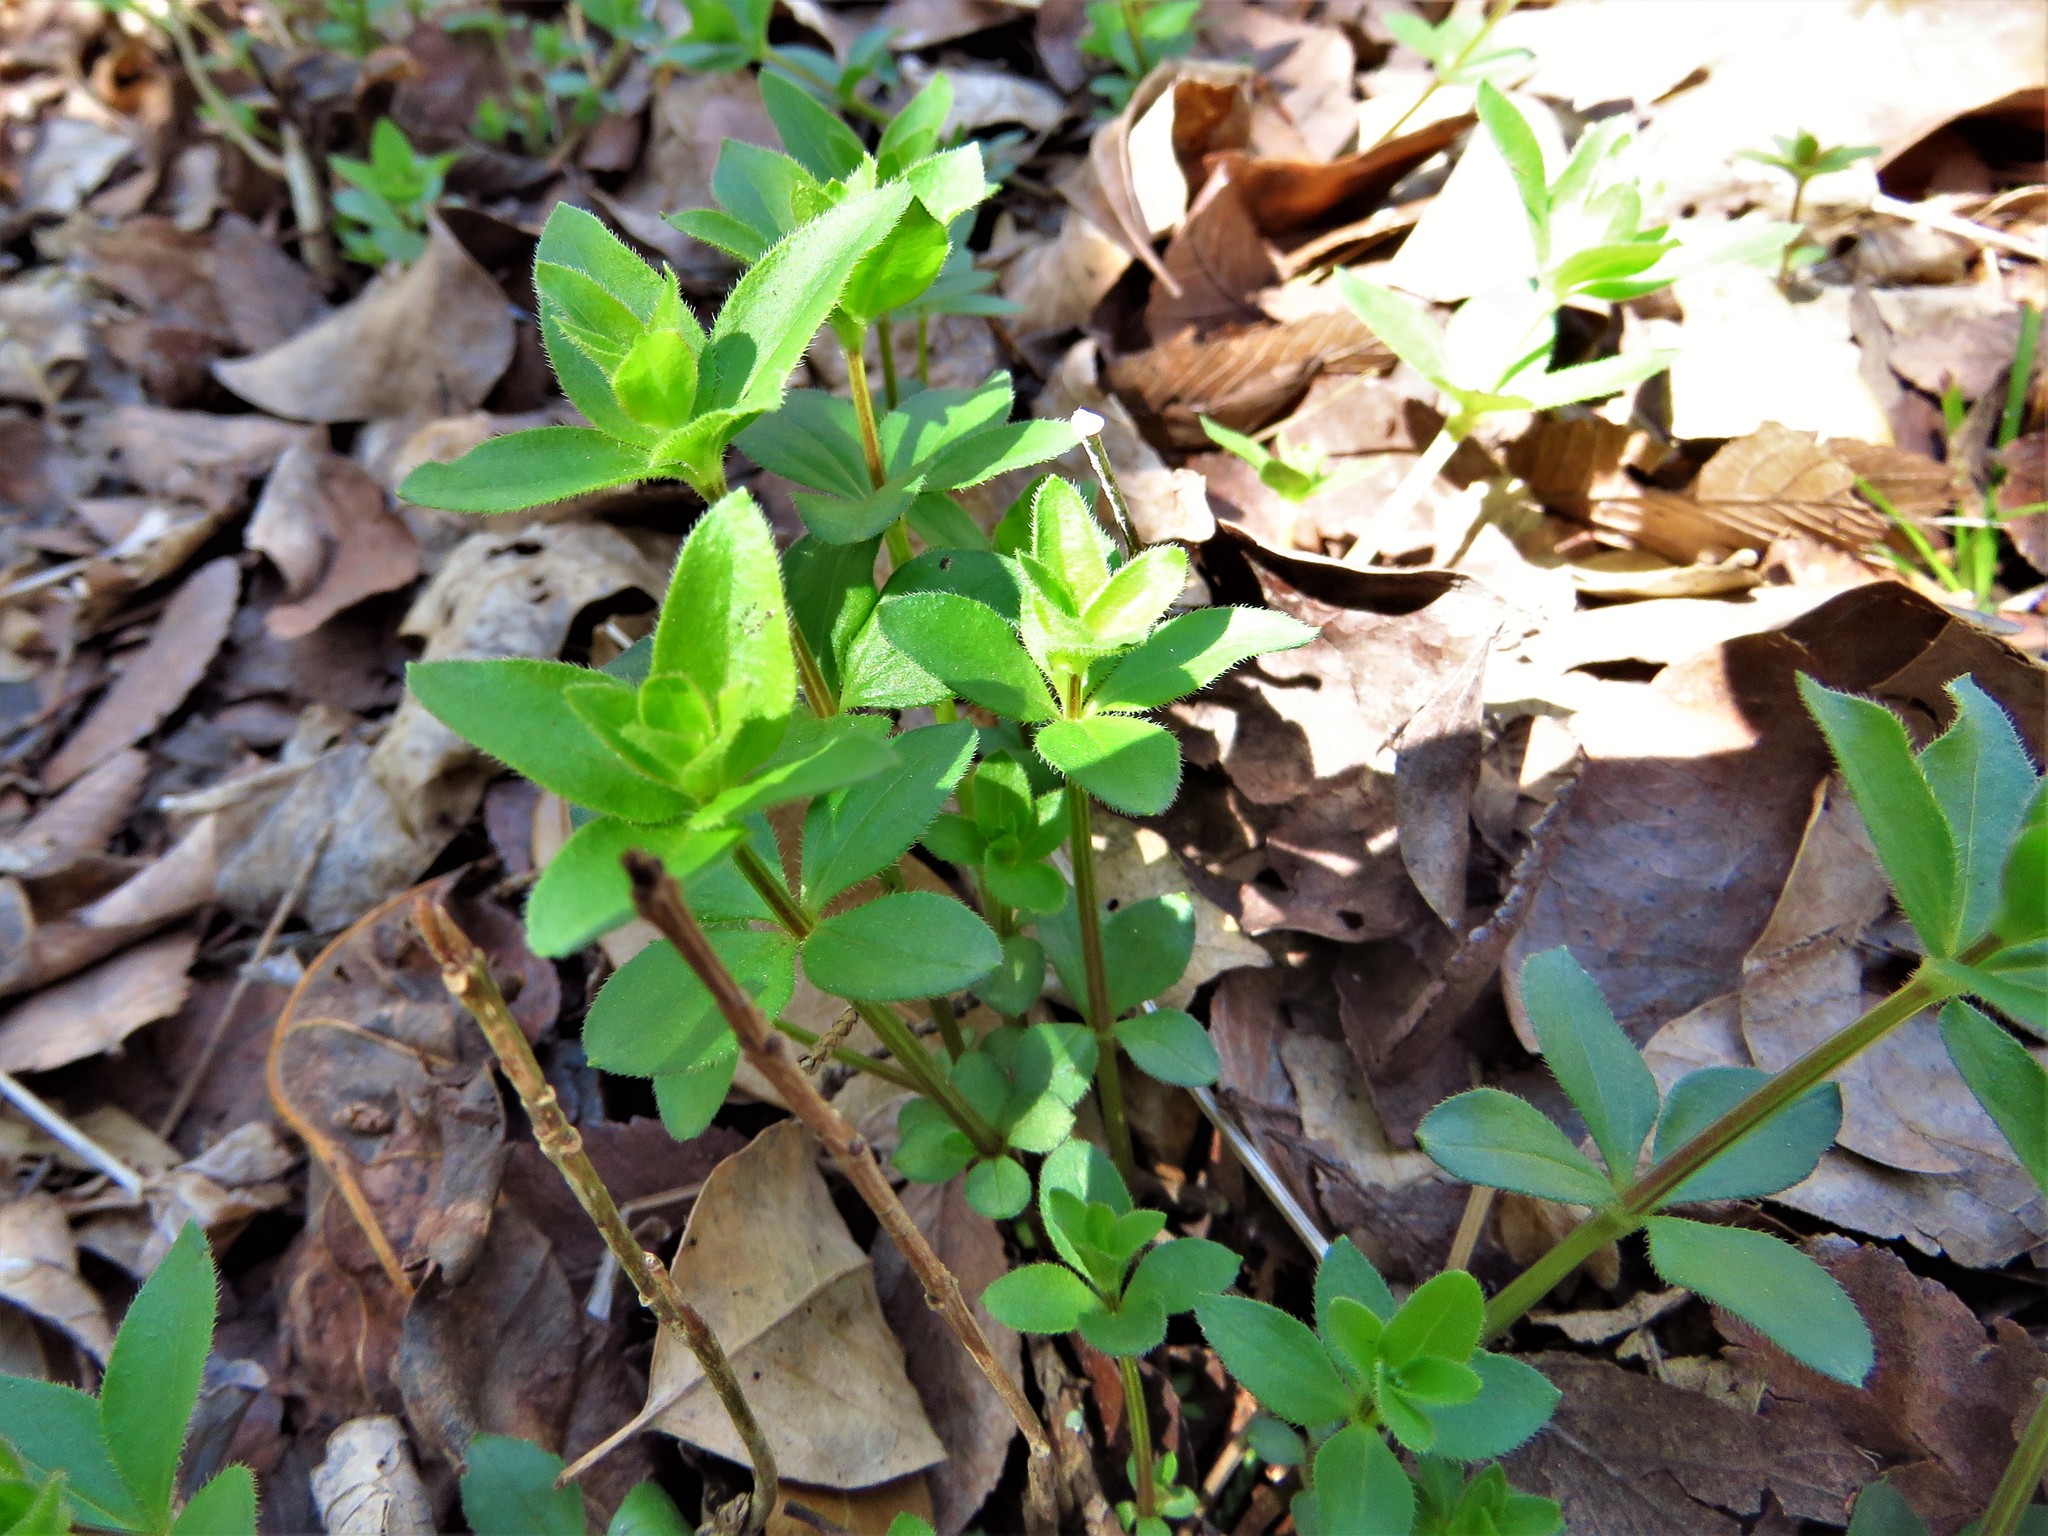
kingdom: Plantae
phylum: Tracheophyta
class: Magnoliopsida
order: Gentianales
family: Rubiaceae
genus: Galium
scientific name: Galium circaezans
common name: Forest bedstraw
